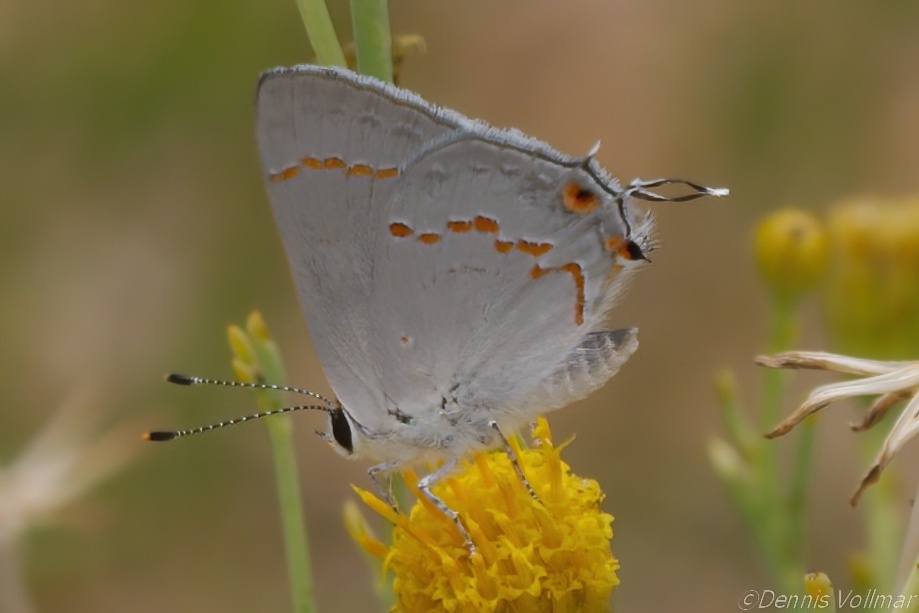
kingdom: Animalia
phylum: Arthropoda
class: Insecta
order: Lepidoptera
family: Lycaenidae
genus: Strymon
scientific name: Strymon
